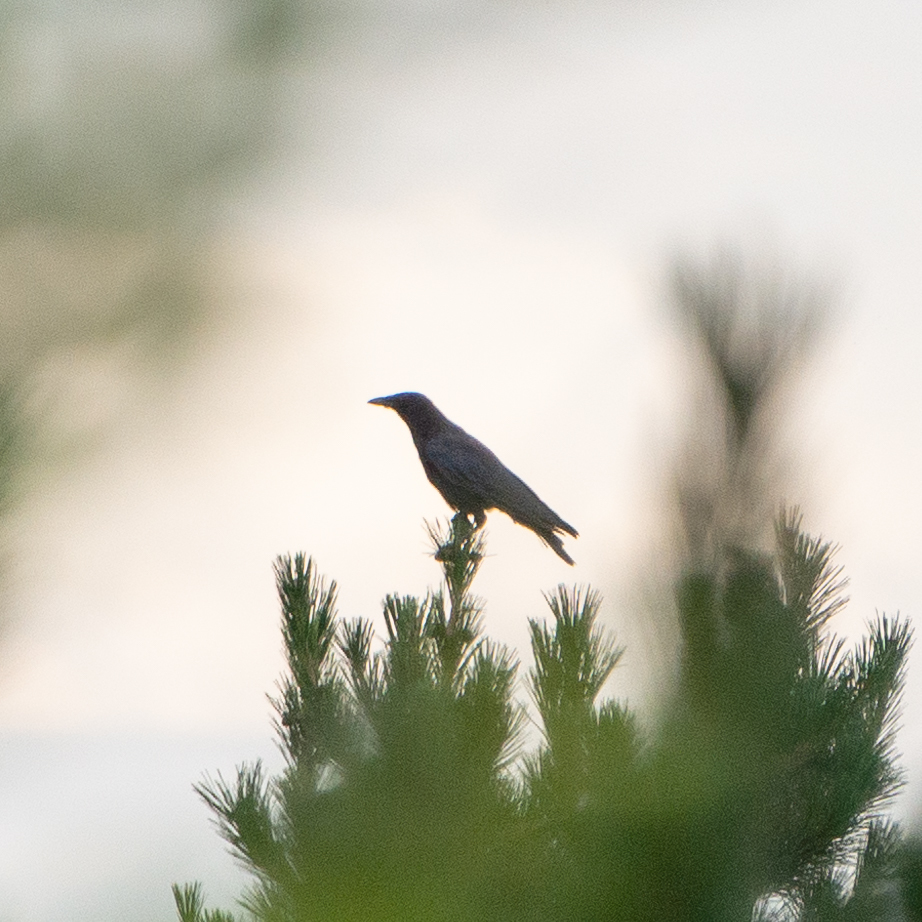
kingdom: Animalia
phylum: Chordata
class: Aves
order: Passeriformes
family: Corvidae
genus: Corvus
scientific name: Corvus corone
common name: Carrion crow
